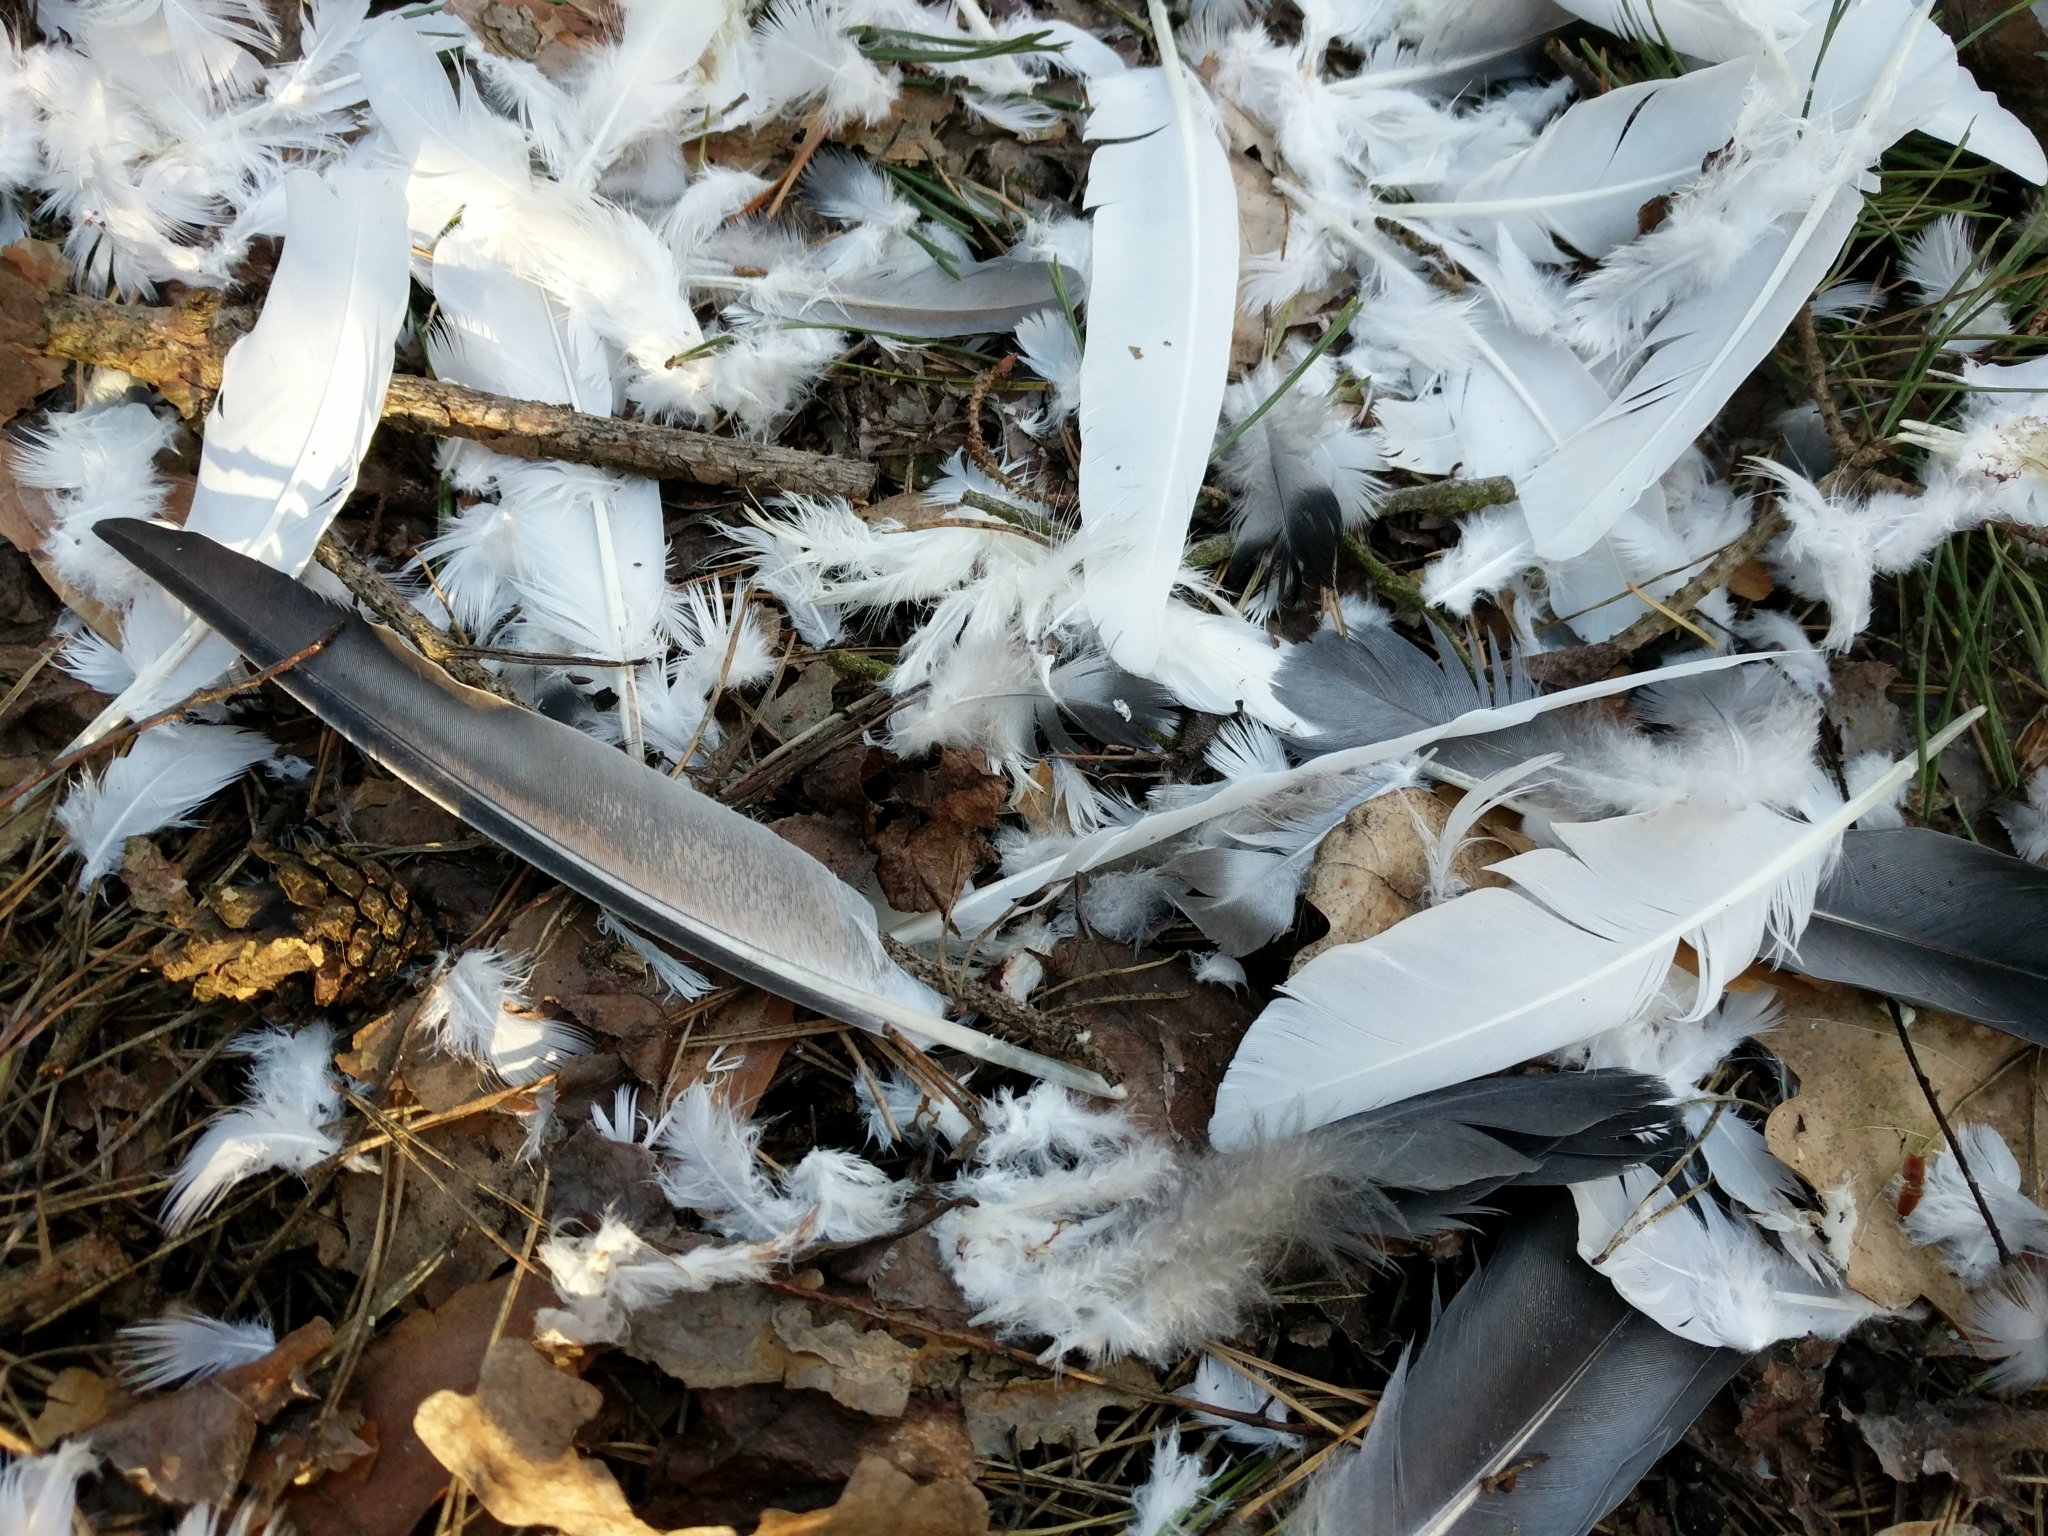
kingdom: Animalia
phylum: Chordata
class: Aves
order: Columbiformes
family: Columbidae
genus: Columba
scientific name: Columba livia
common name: Rock pigeon
